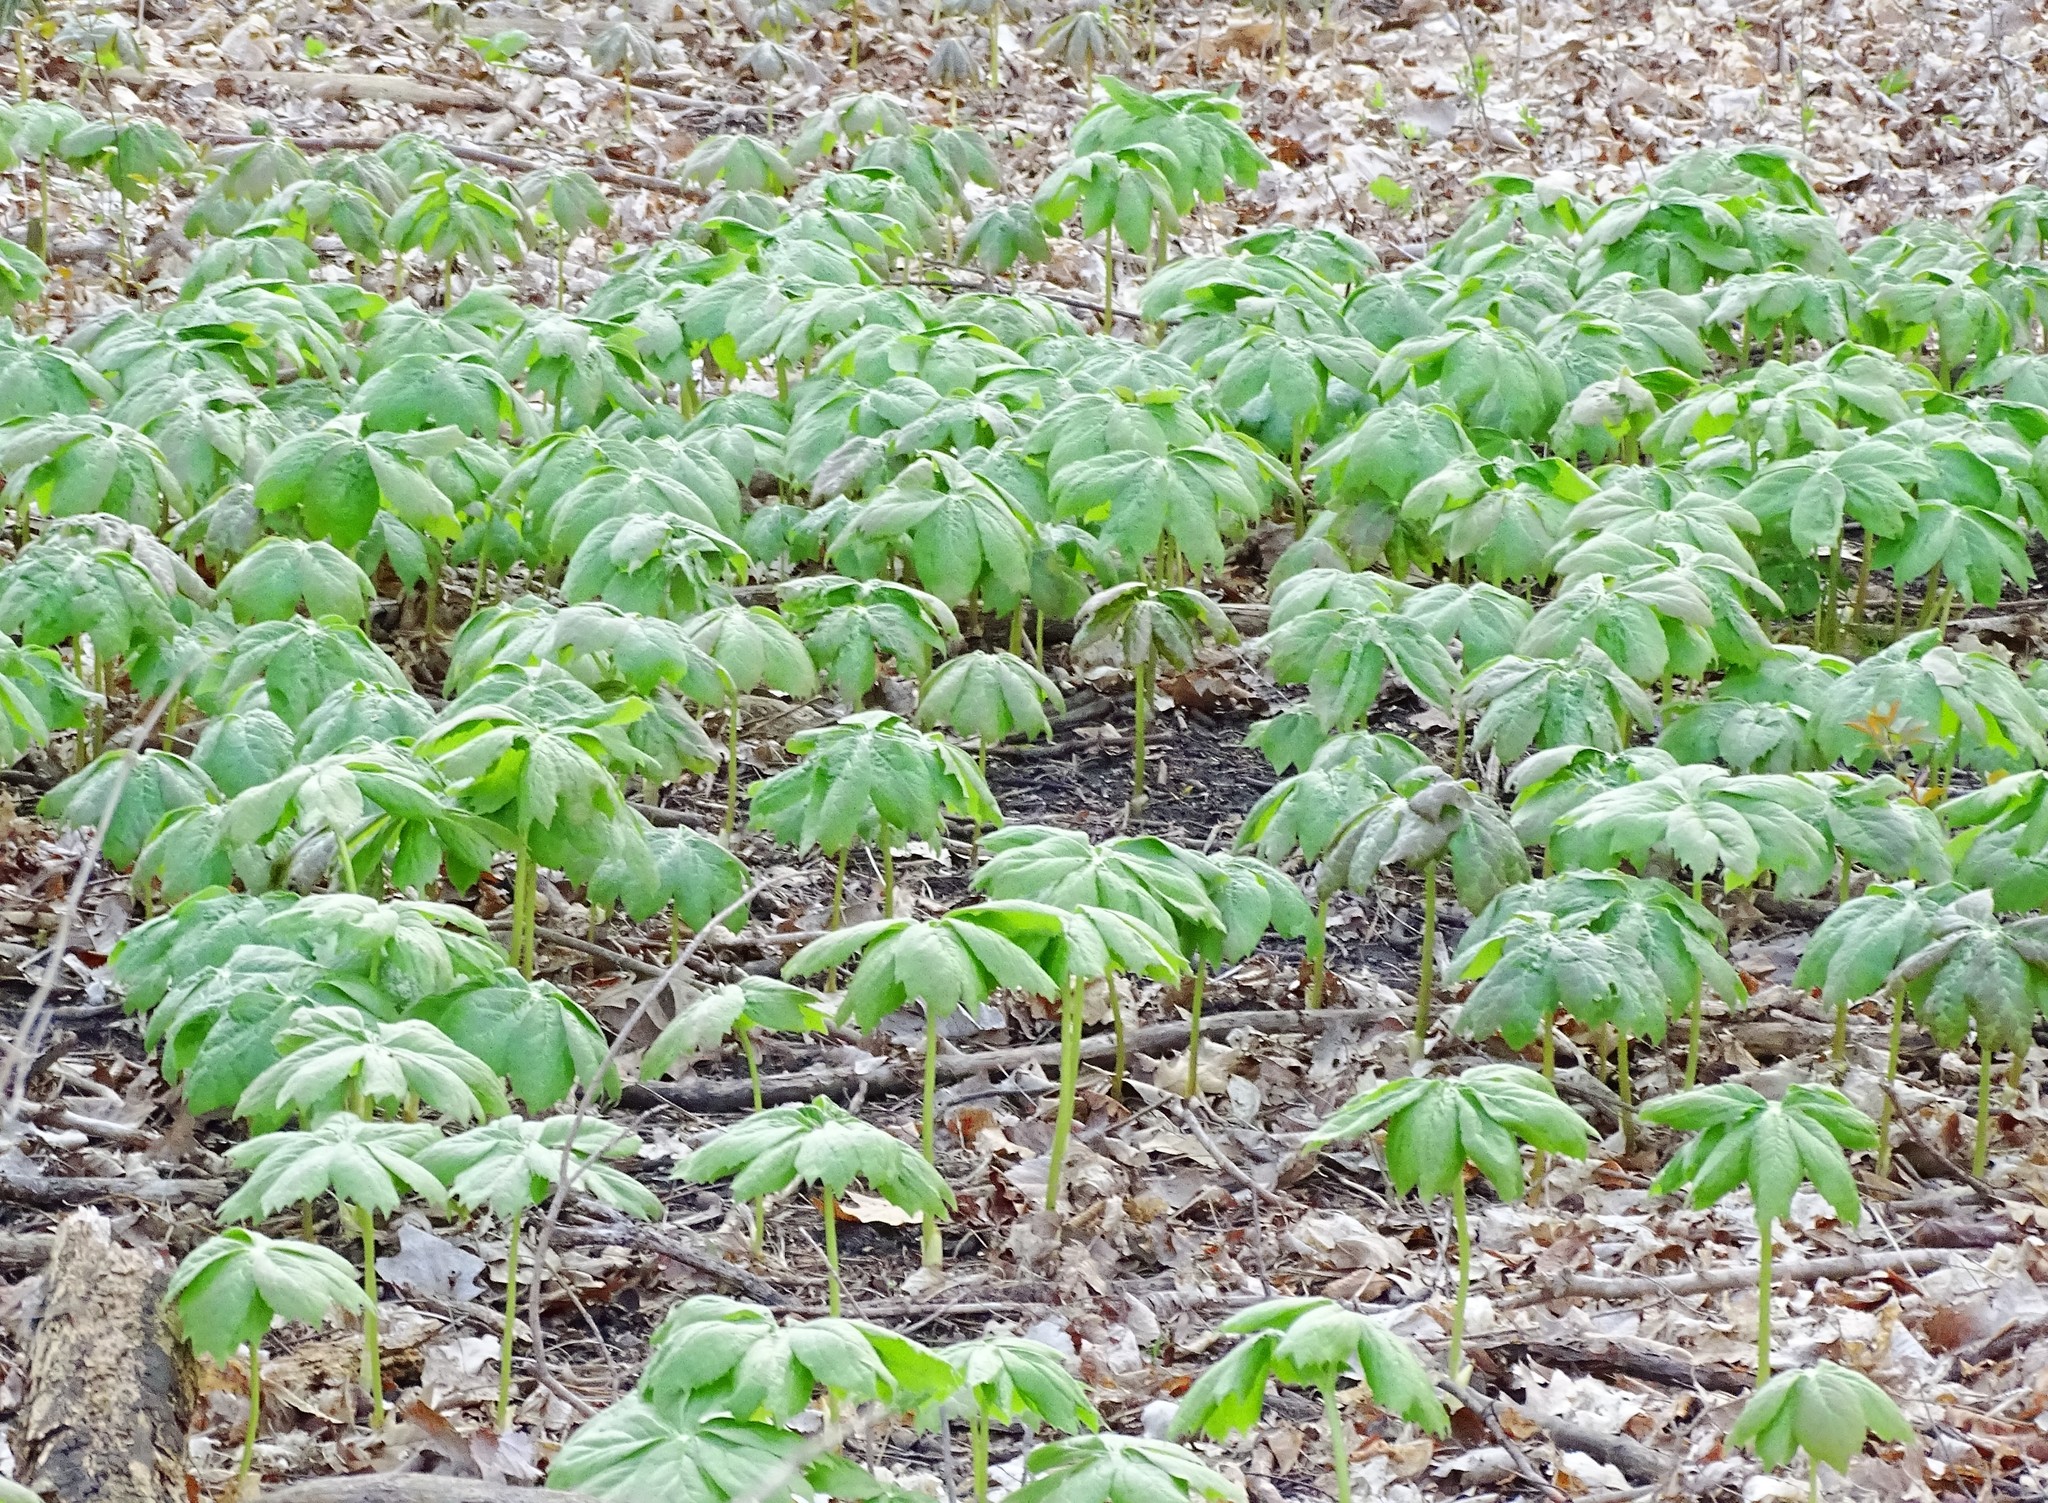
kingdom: Plantae
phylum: Tracheophyta
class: Magnoliopsida
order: Ranunculales
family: Berberidaceae
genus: Podophyllum
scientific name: Podophyllum peltatum
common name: Wild mandrake
